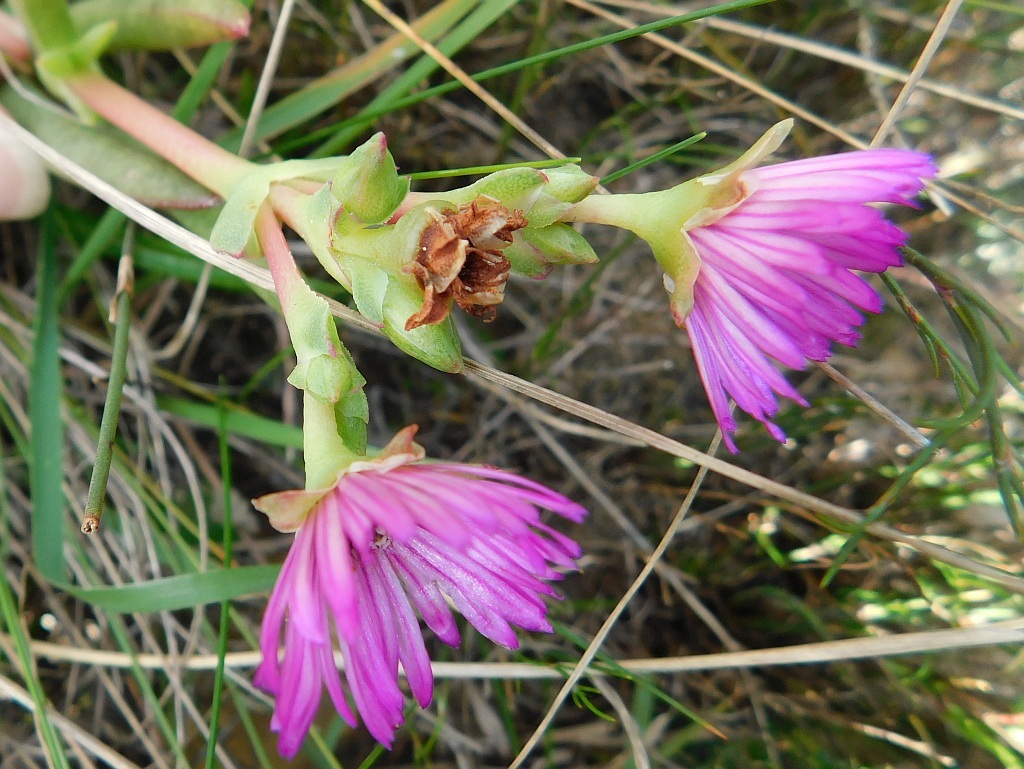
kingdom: Plantae
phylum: Tracheophyta
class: Magnoliopsida
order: Caryophyllales
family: Aizoaceae
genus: Ruschia
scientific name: Ruschia schollii
